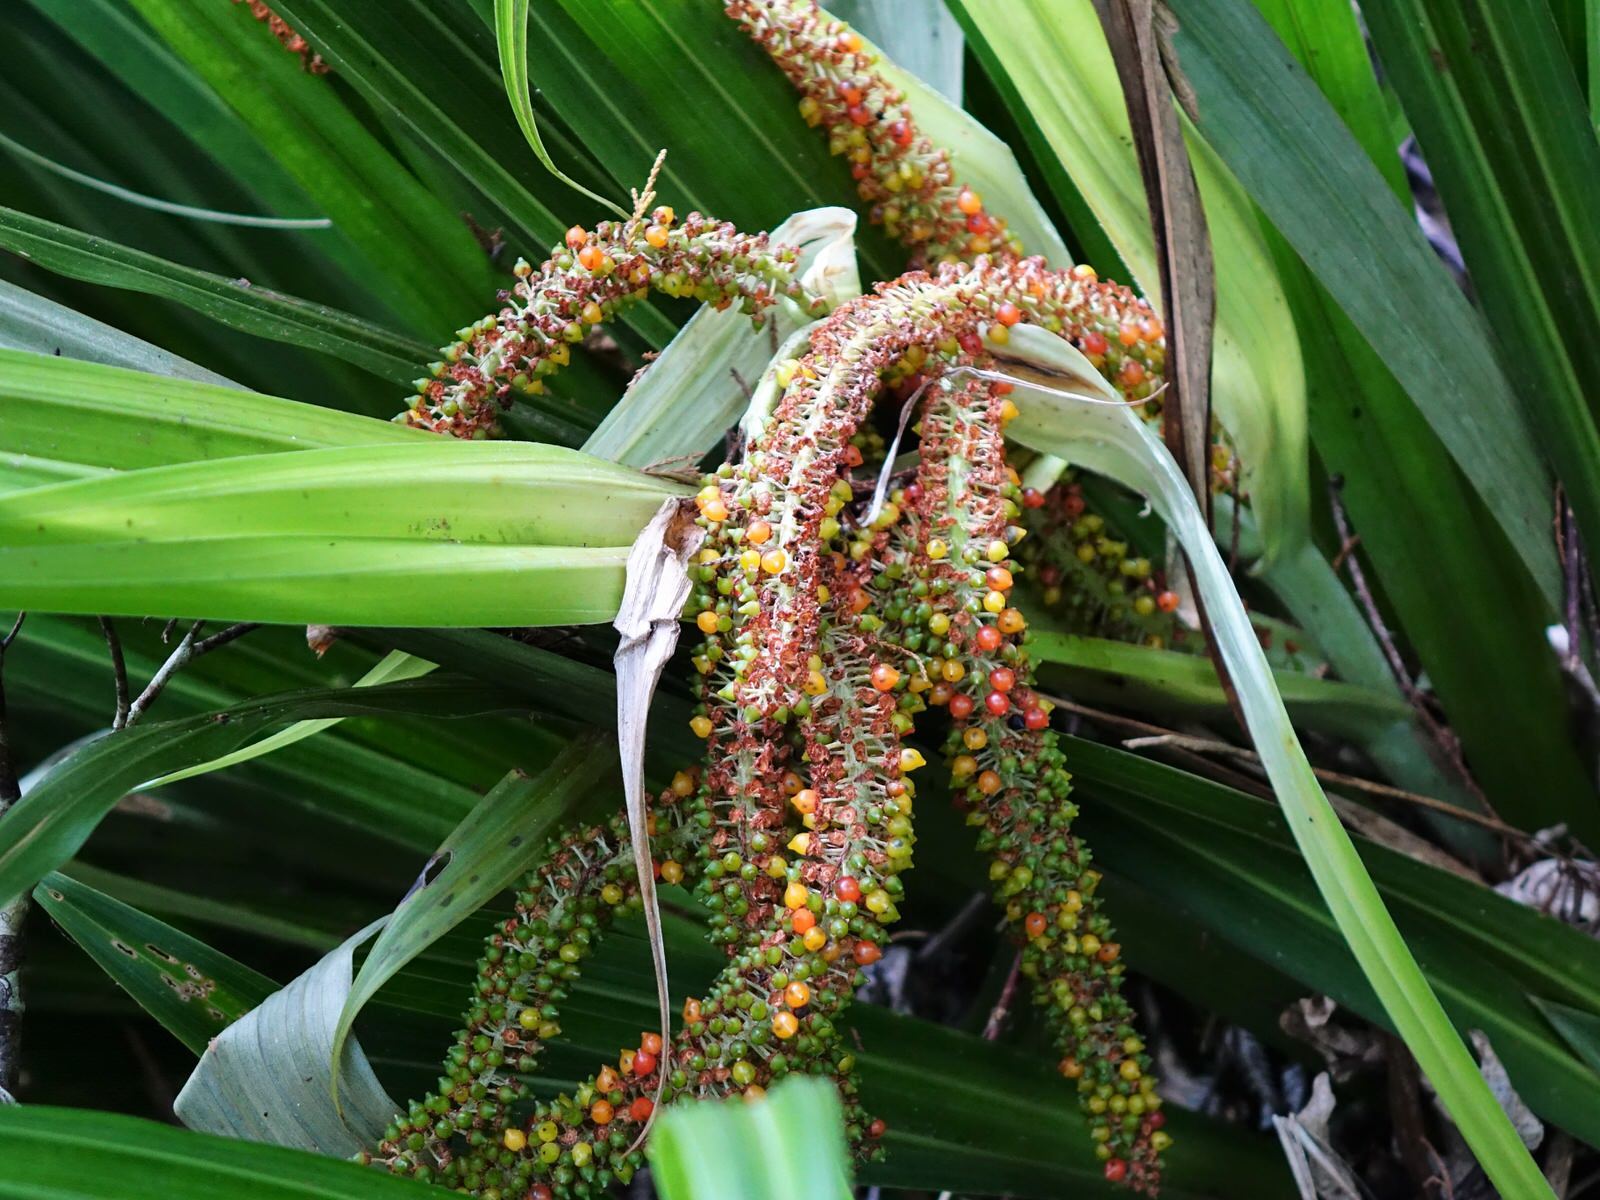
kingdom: Plantae
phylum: Tracheophyta
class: Liliopsida
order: Asparagales
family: Asteliaceae
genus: Astelia
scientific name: Astelia hastata
